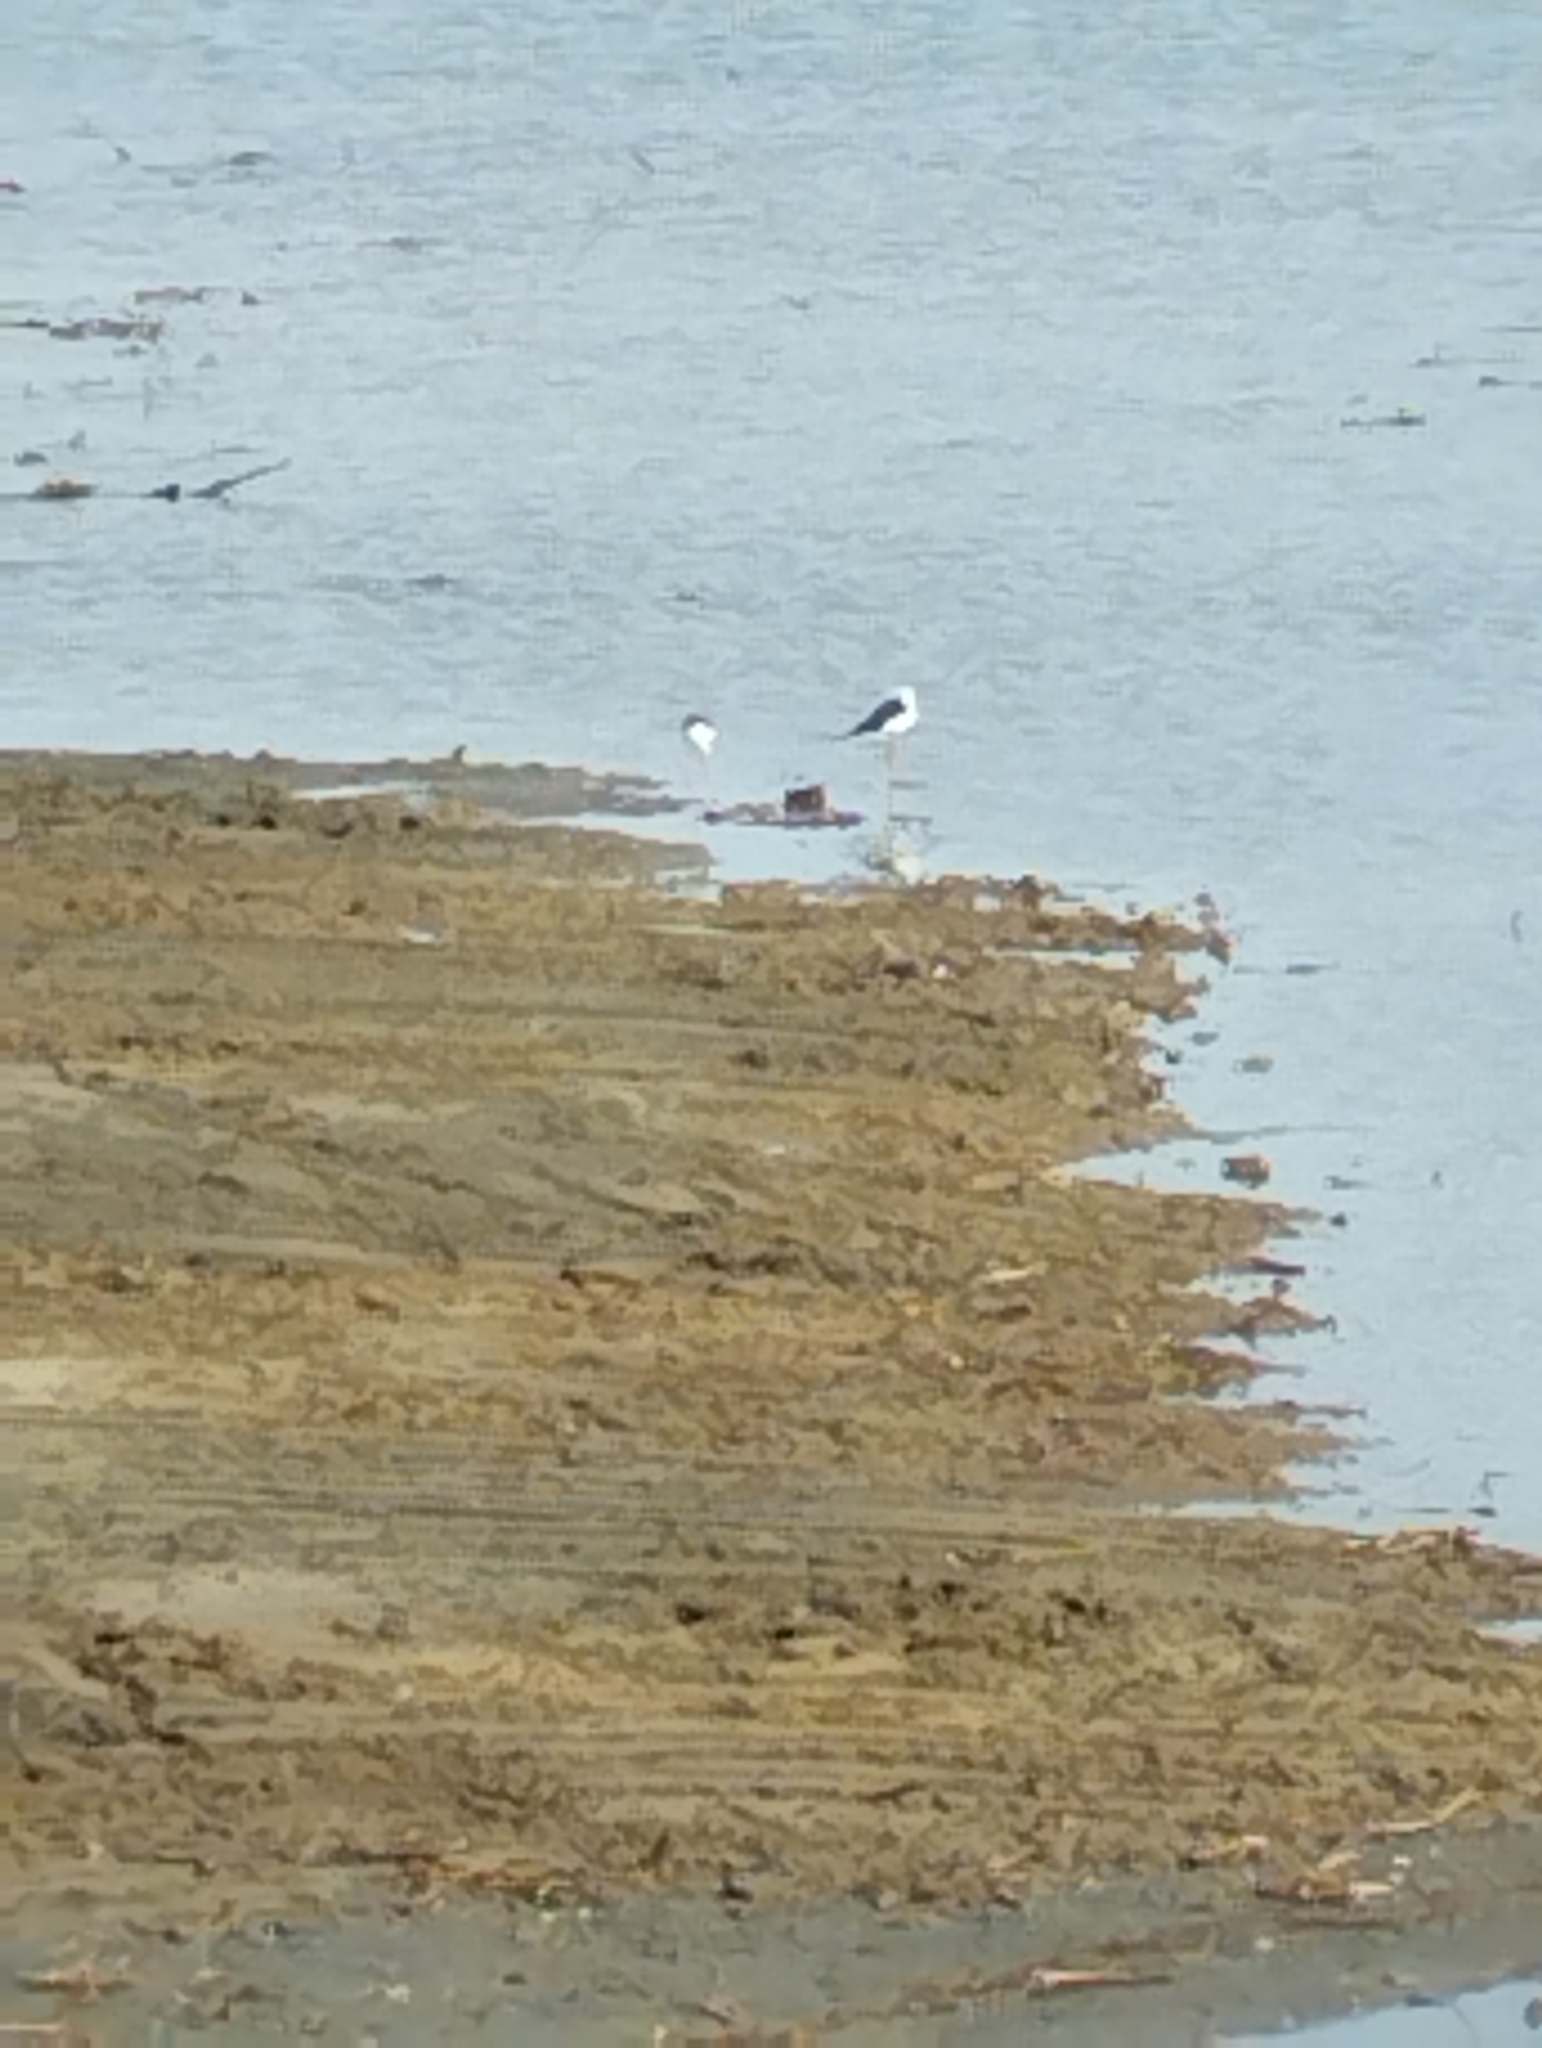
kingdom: Animalia
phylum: Chordata
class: Aves
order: Charadriiformes
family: Recurvirostridae
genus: Himantopus
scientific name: Himantopus himantopus
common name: Black-winged stilt
